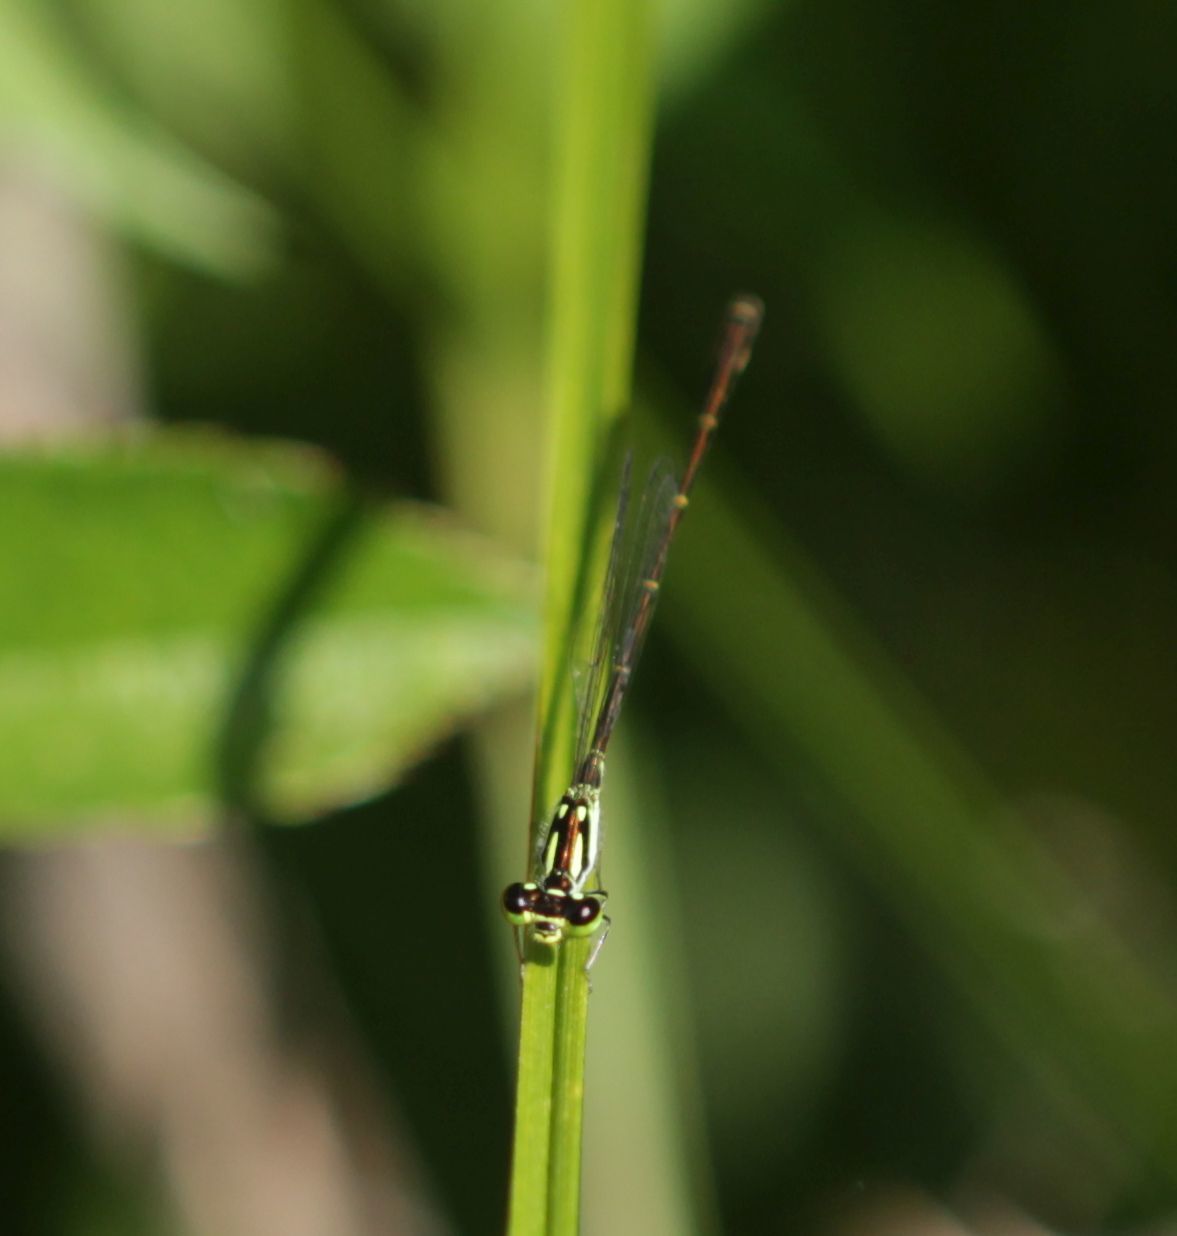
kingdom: Animalia
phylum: Arthropoda
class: Insecta
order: Odonata
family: Coenagrionidae
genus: Ischnura
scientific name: Ischnura posita
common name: Fragile forktail
